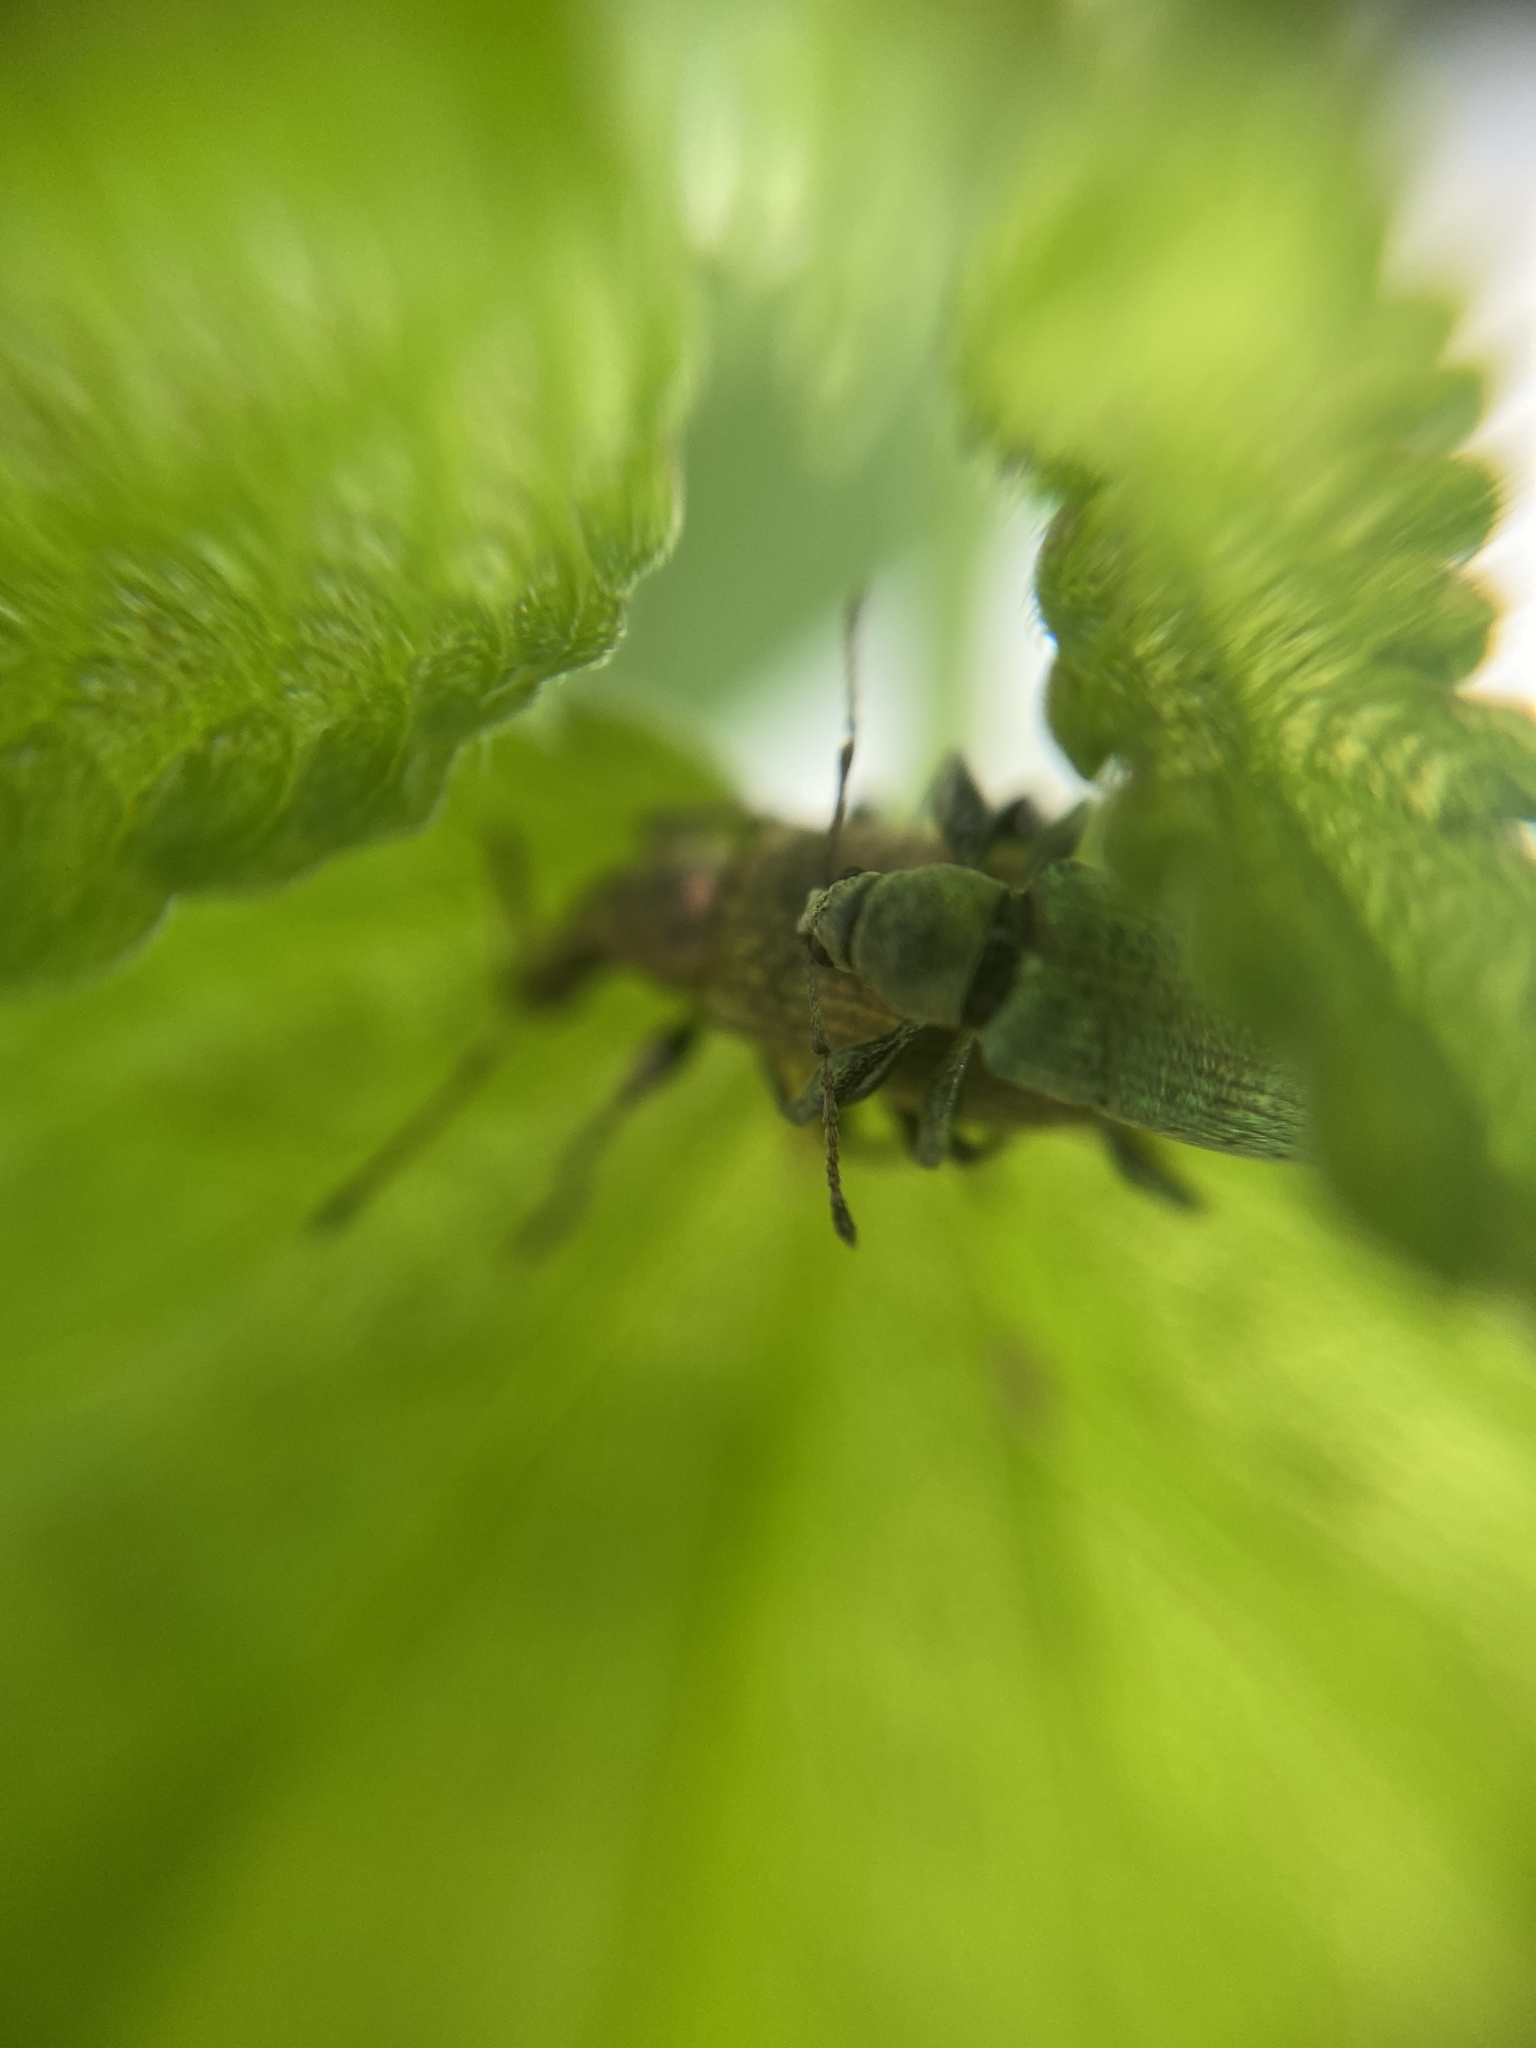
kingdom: Animalia
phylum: Arthropoda
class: Insecta
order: Coleoptera
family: Curculionidae
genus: Phyllobius
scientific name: Phyllobius pomaceus
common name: Green nettle weevil
